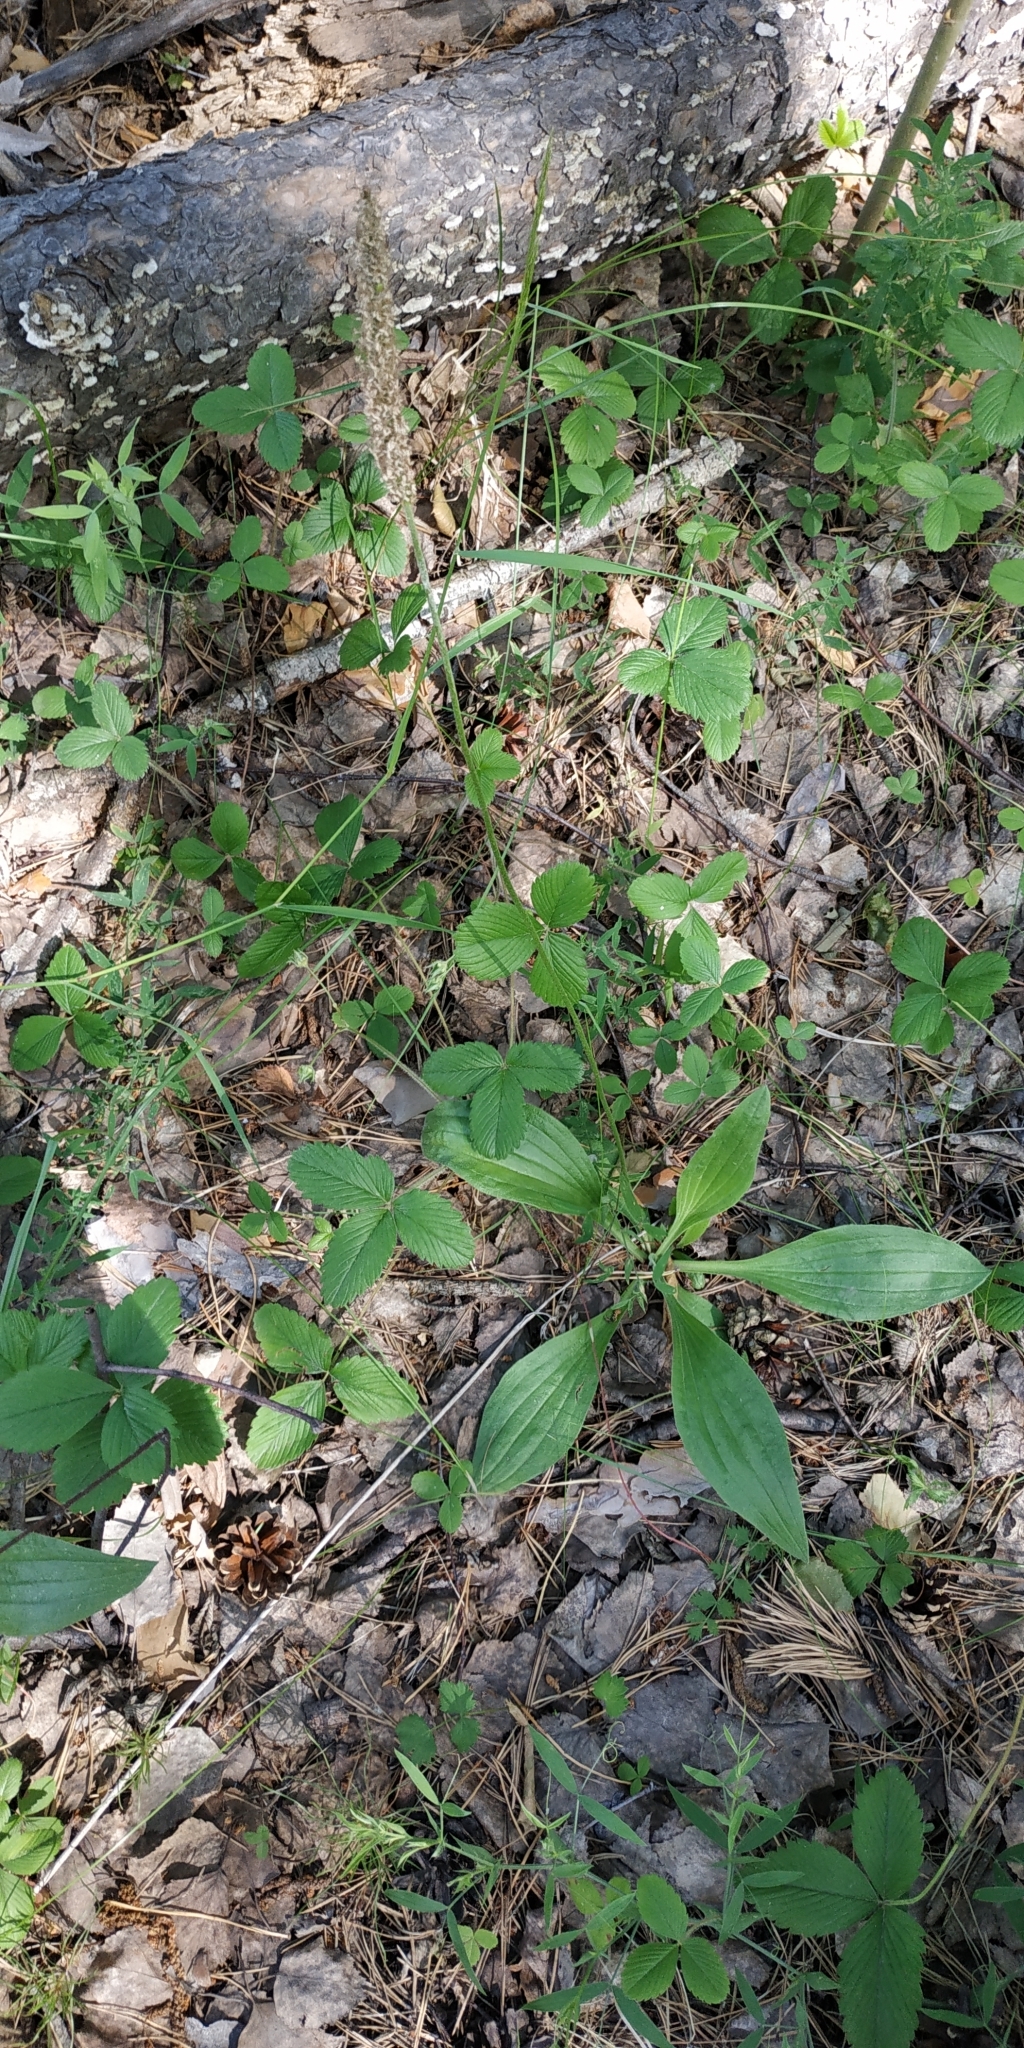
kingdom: Plantae
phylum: Tracheophyta
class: Magnoliopsida
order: Lamiales
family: Plantaginaceae
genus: Plantago
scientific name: Plantago urvillei
